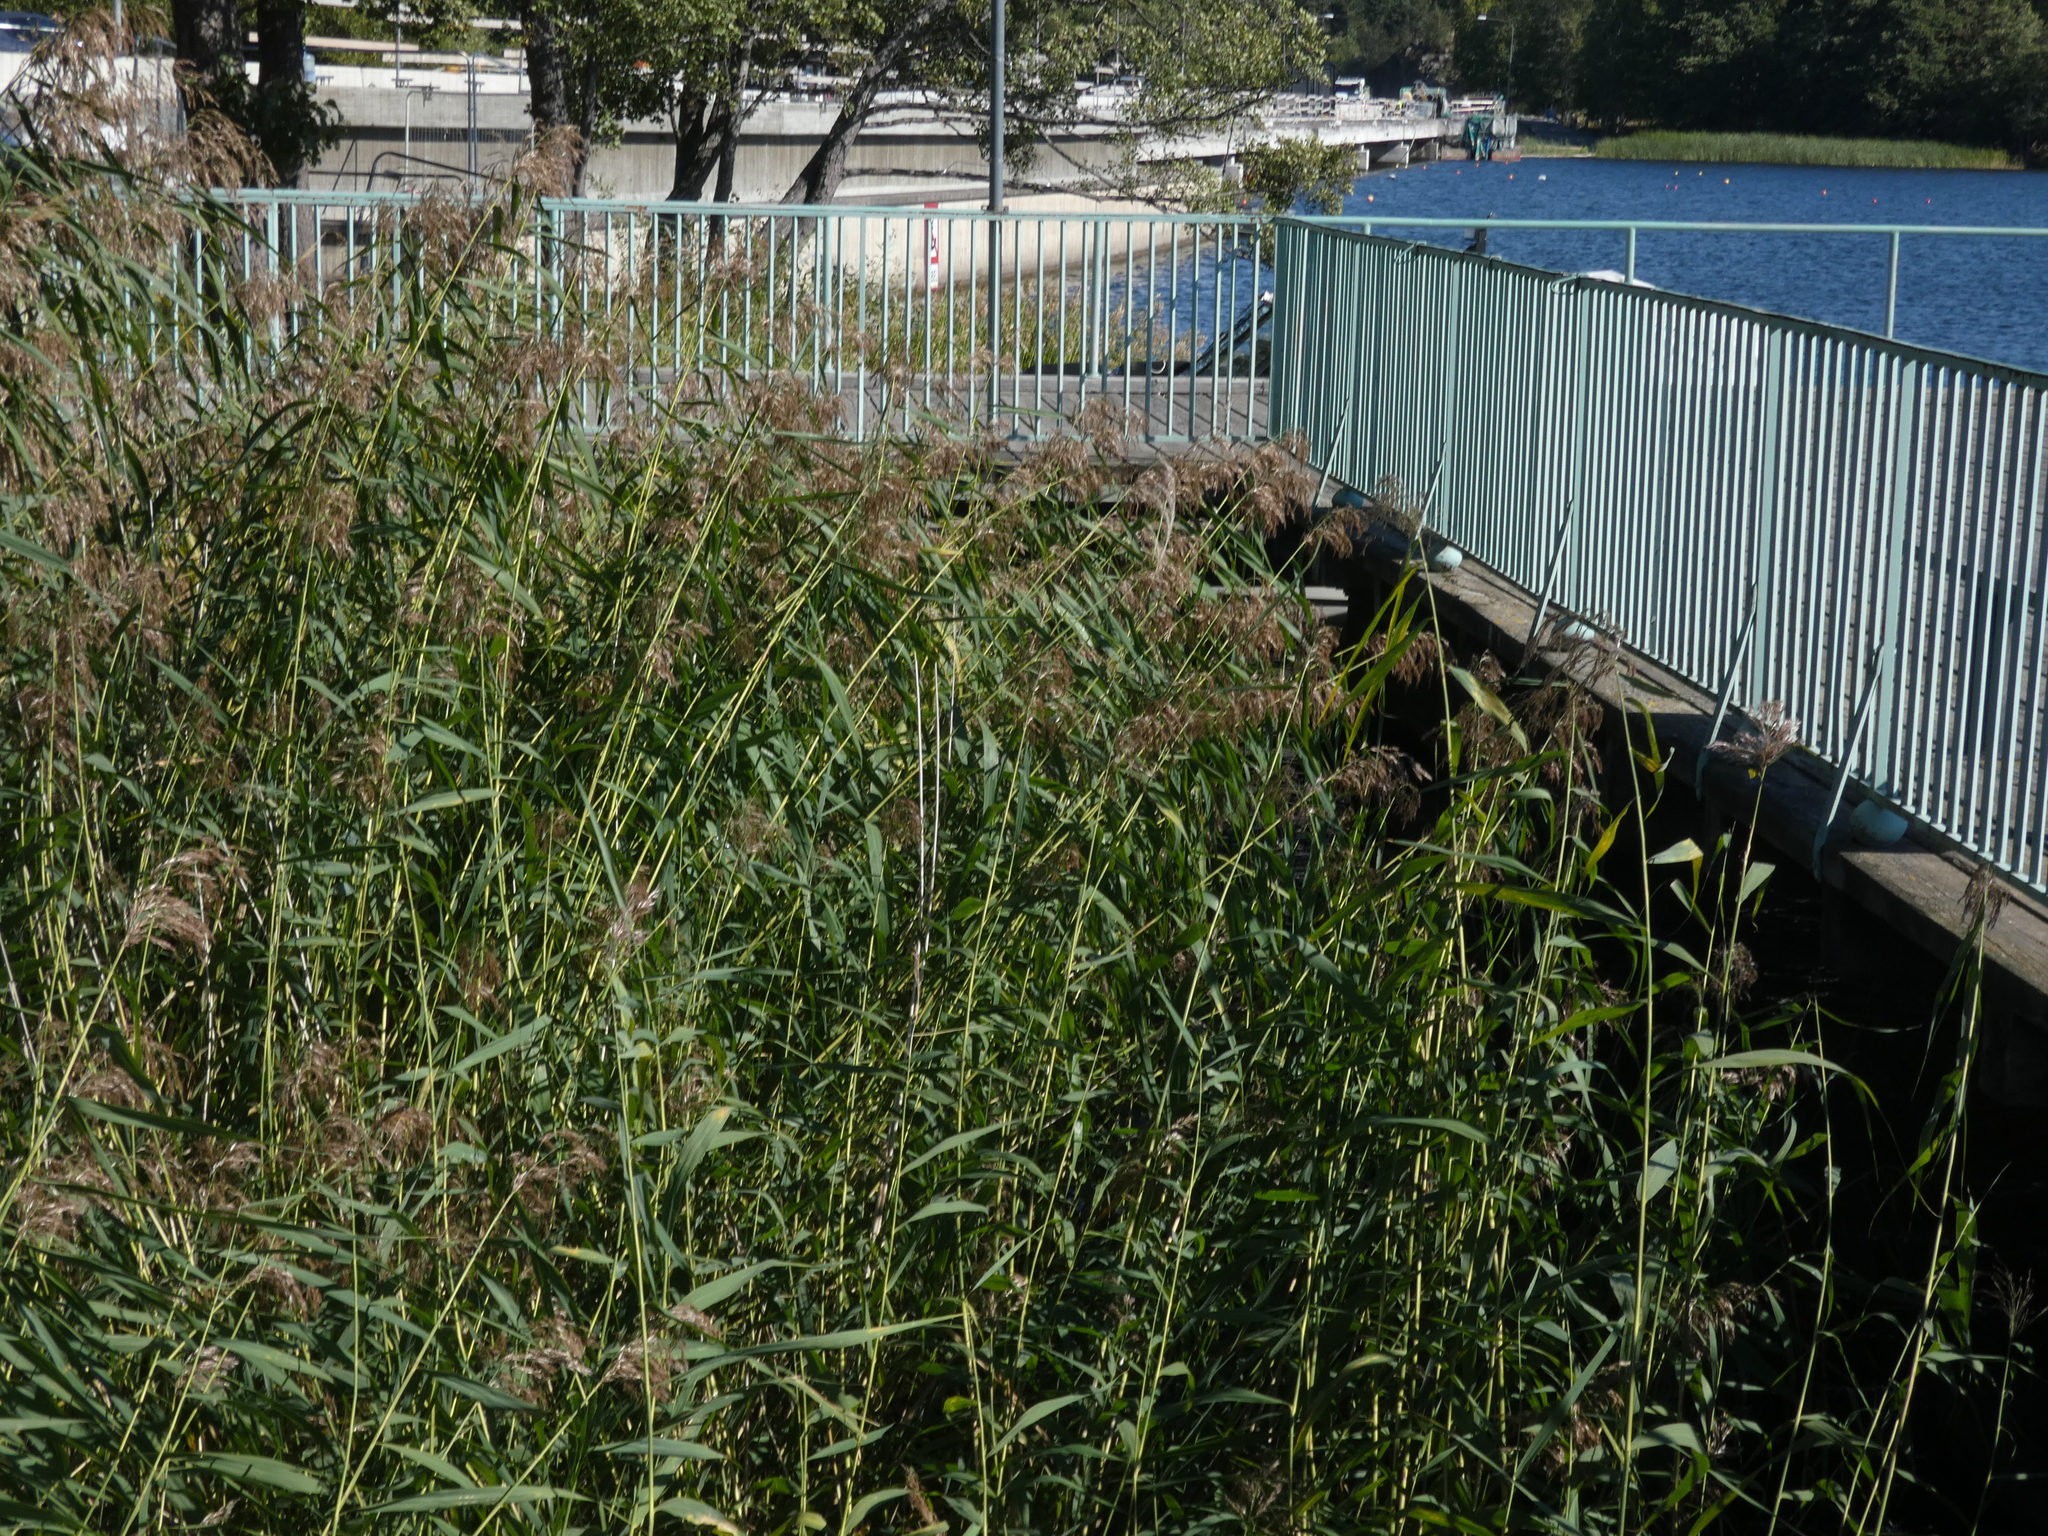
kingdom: Plantae
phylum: Tracheophyta
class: Liliopsida
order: Poales
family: Poaceae
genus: Phragmites
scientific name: Phragmites australis
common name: Common reed
